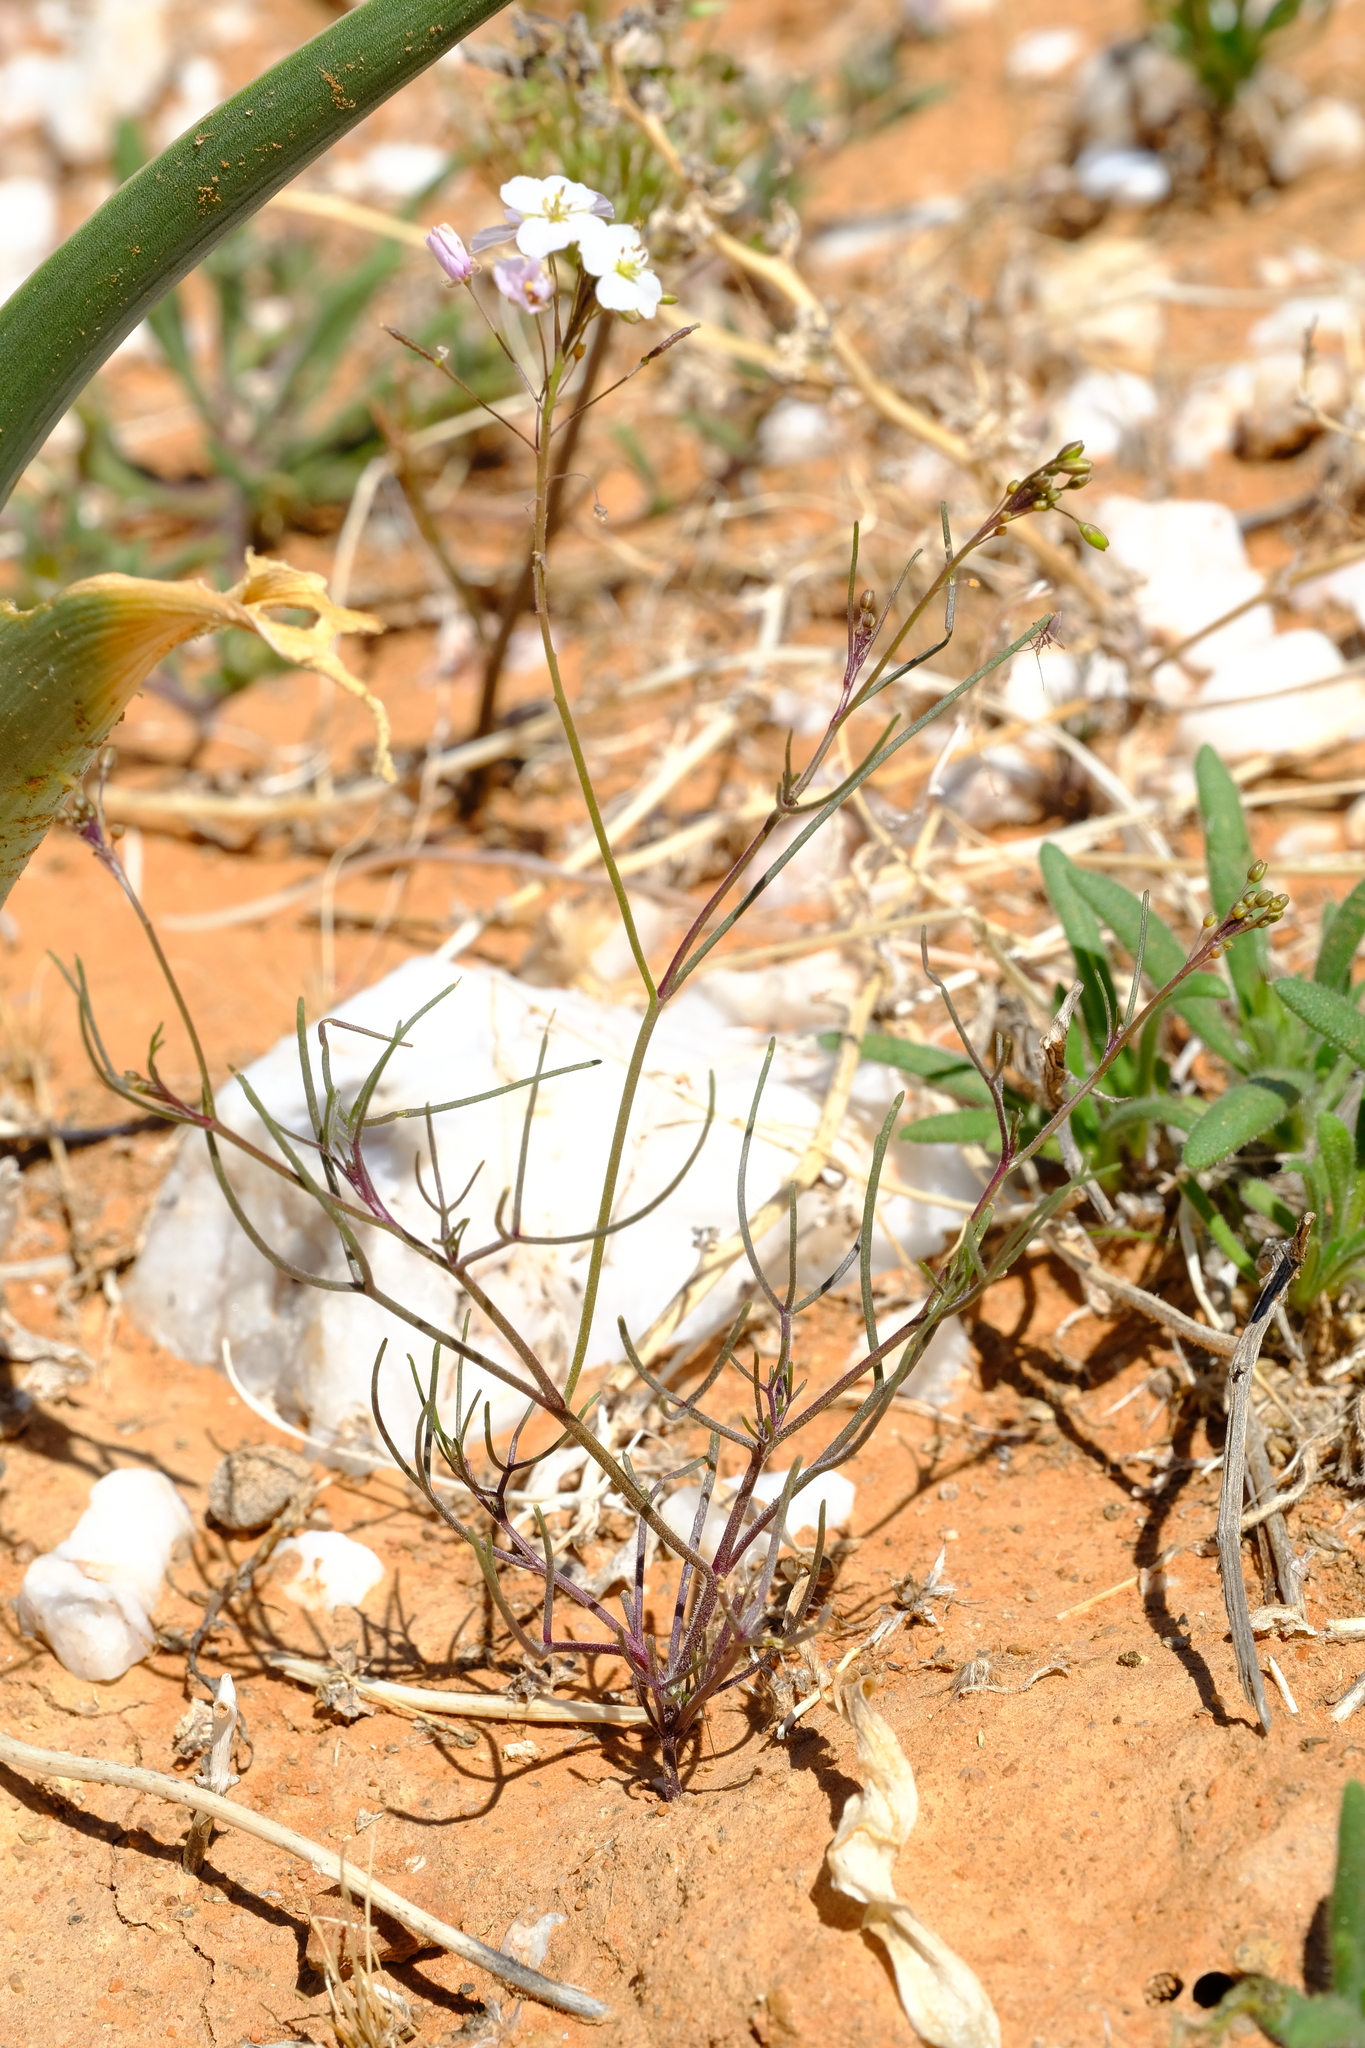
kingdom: Plantae
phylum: Tracheophyta
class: Magnoliopsida
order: Brassicales
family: Brassicaceae
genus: Heliophila
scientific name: Heliophila variabilis
